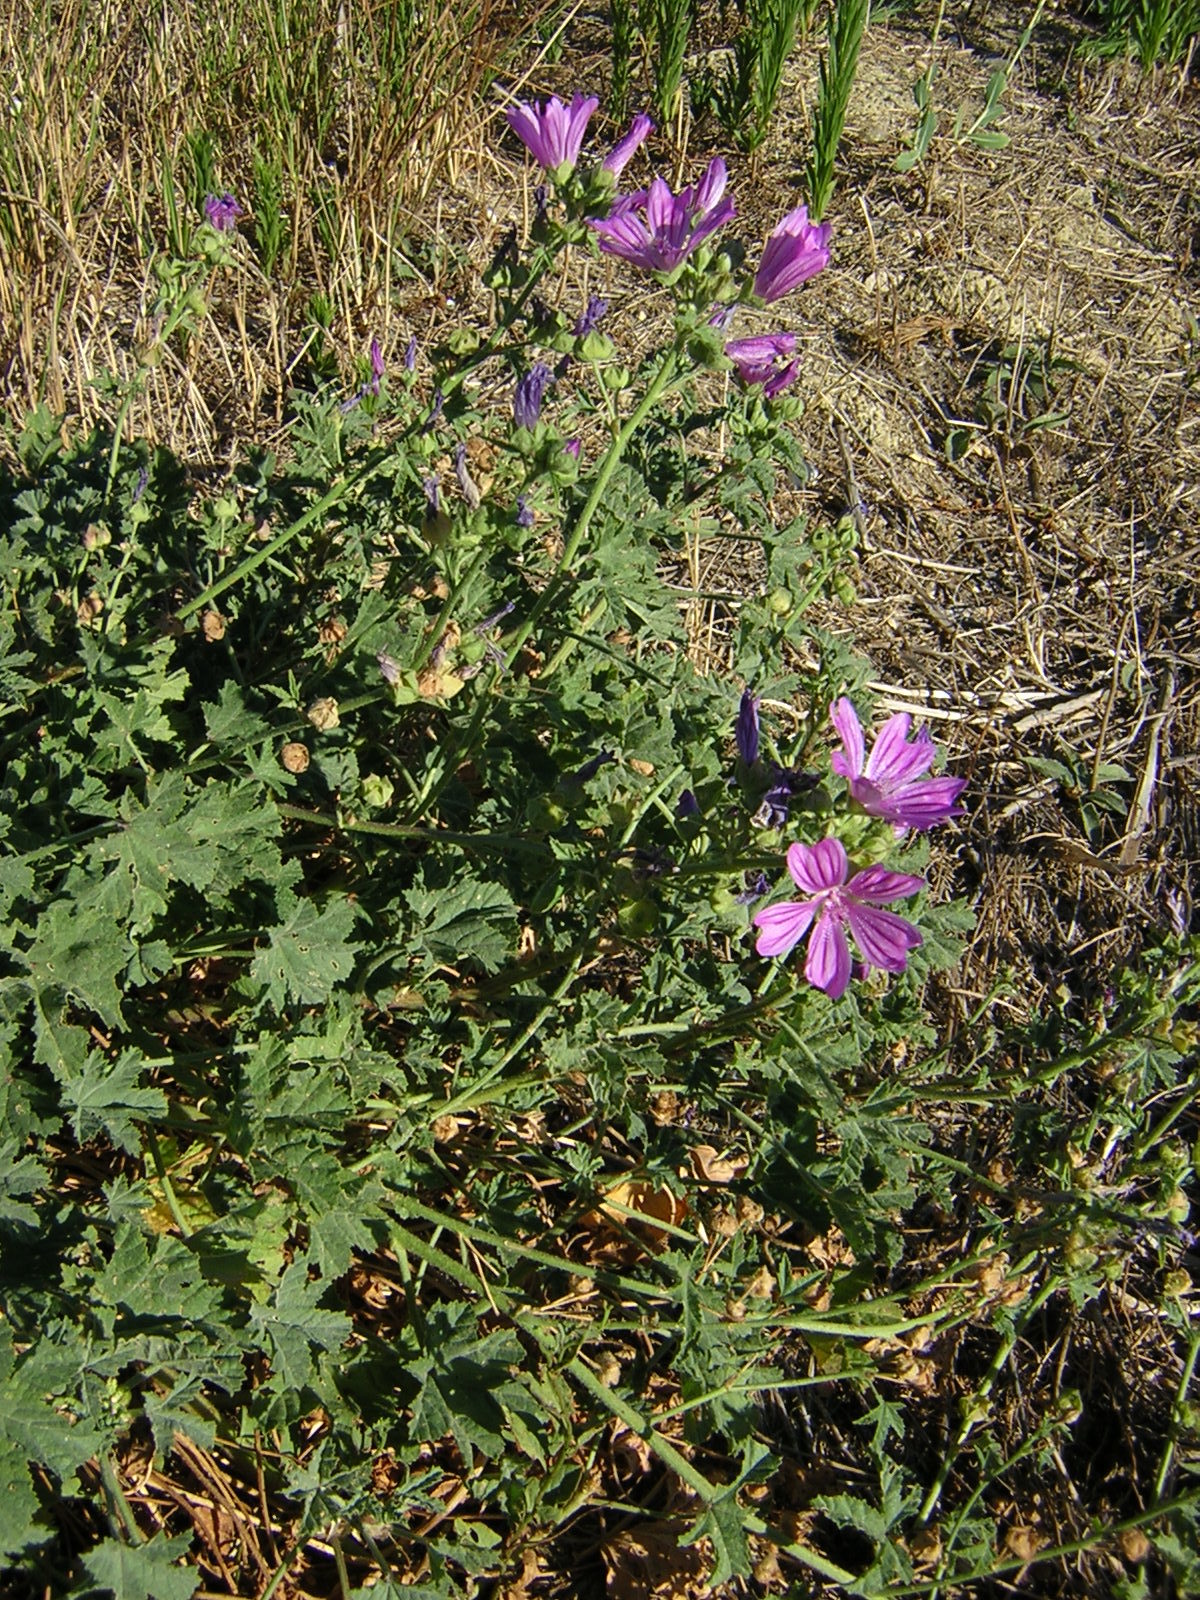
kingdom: Plantae
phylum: Tracheophyta
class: Magnoliopsida
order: Malvales
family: Malvaceae
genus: Malva
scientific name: Malva sylvestris
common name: Common mallow
